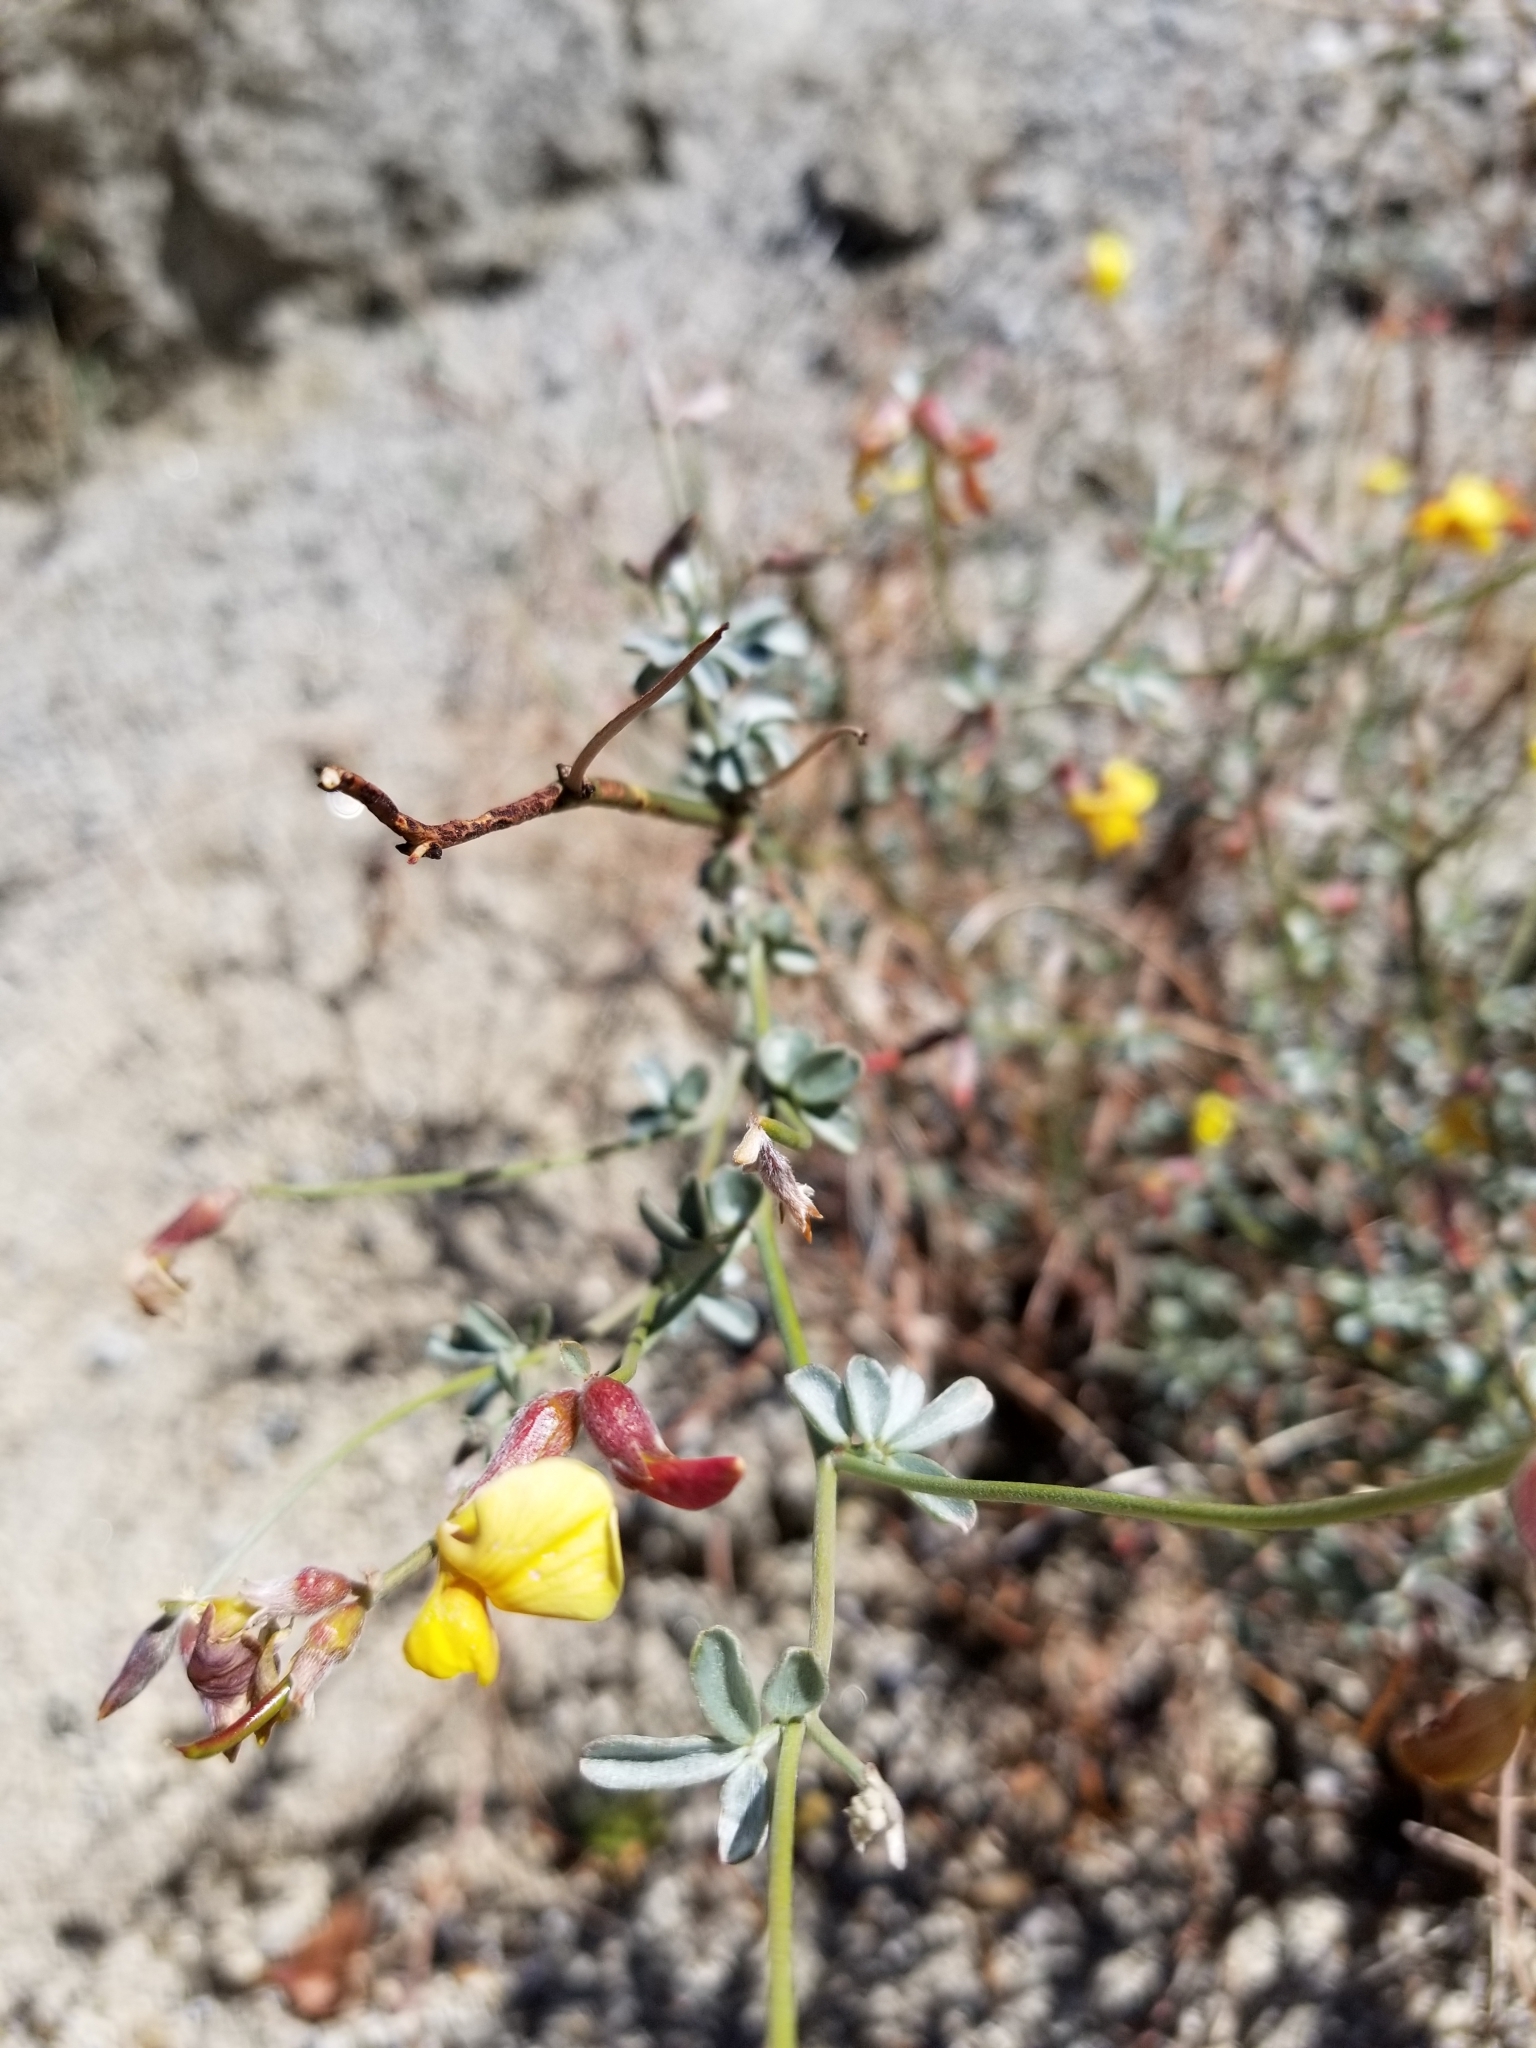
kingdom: Plantae
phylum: Tracheophyta
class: Magnoliopsida
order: Fabales
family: Fabaceae
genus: Acmispon
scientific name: Acmispon rigidus
